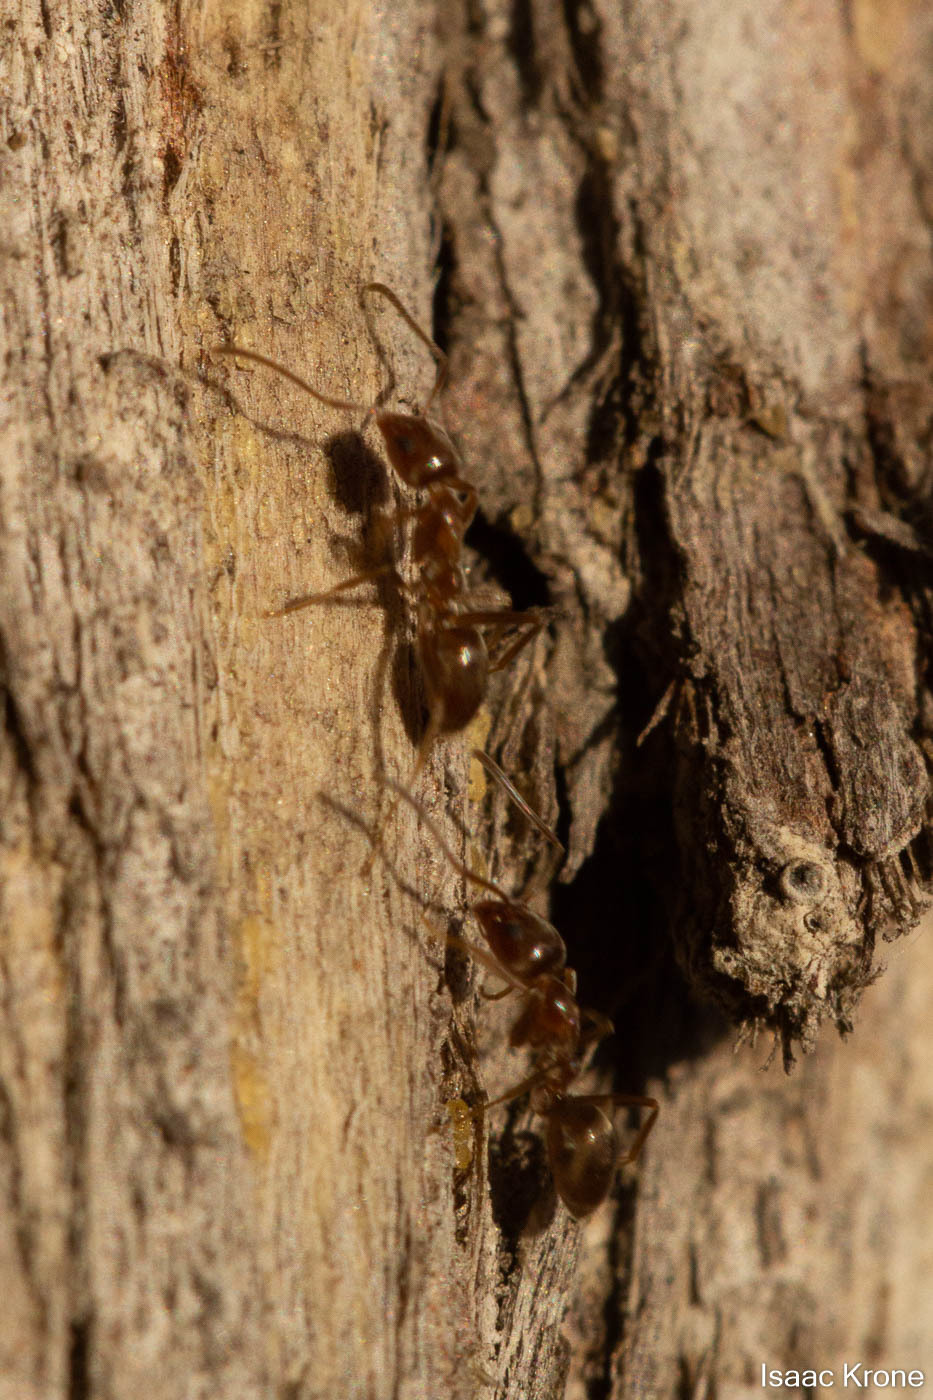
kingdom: Animalia
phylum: Arthropoda
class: Insecta
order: Hymenoptera
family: Formicidae
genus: Linepithema
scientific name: Linepithema humile
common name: Argentine ant
